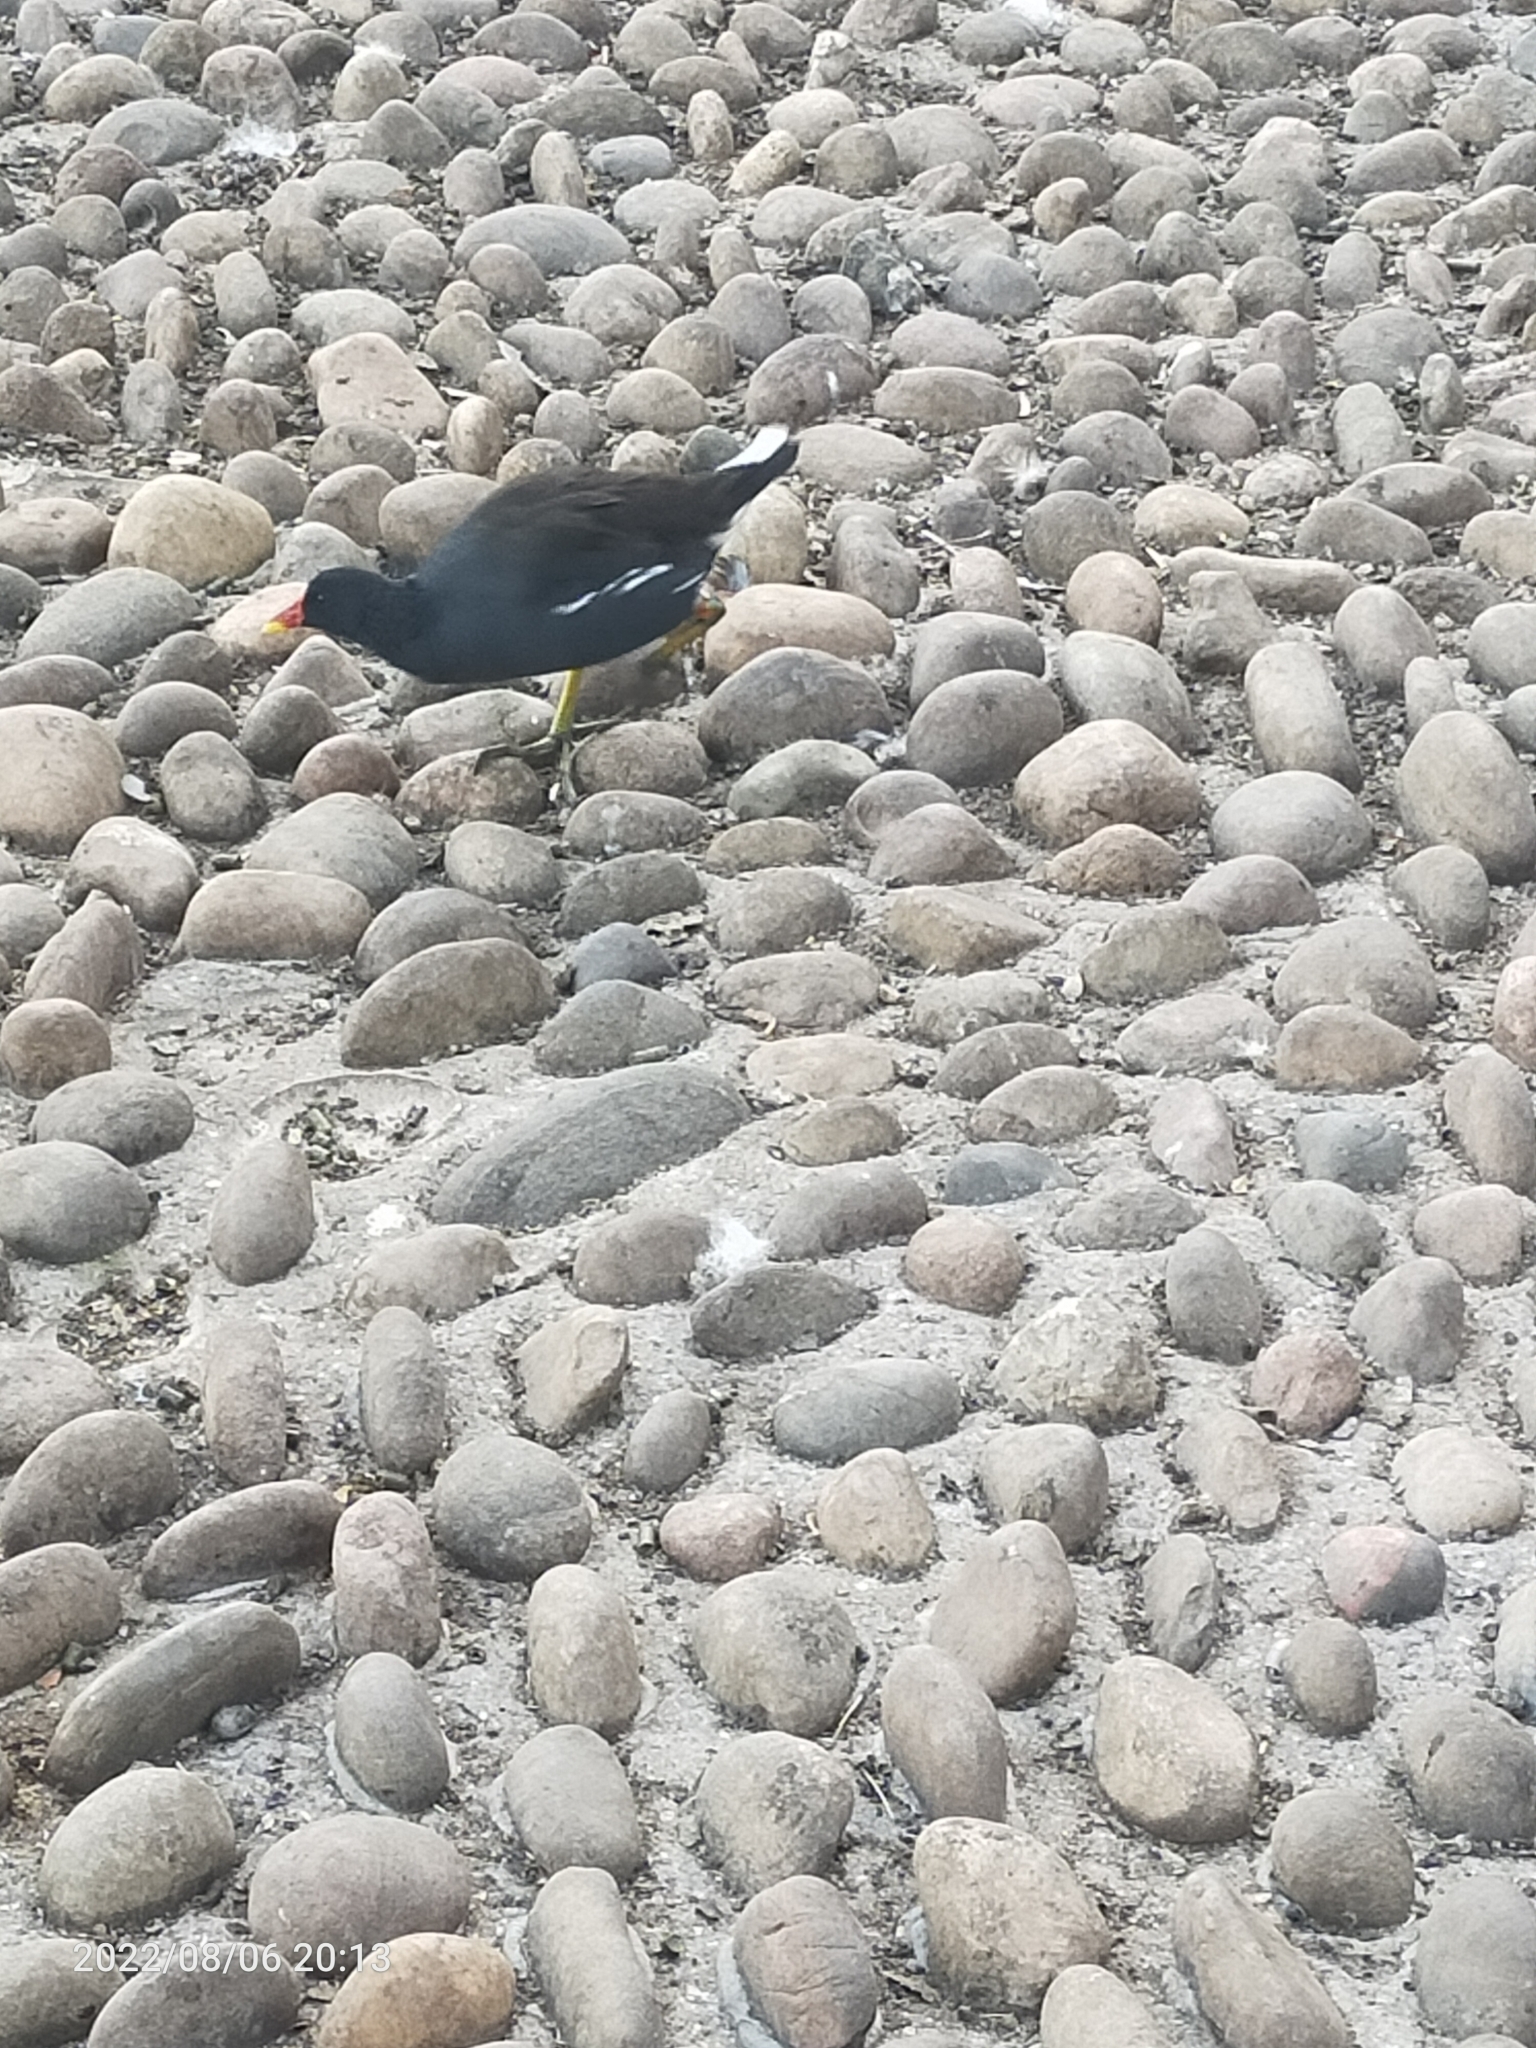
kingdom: Animalia
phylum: Chordata
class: Aves
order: Gruiformes
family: Rallidae
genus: Gallinula
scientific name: Gallinula chloropus
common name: Common moorhen
